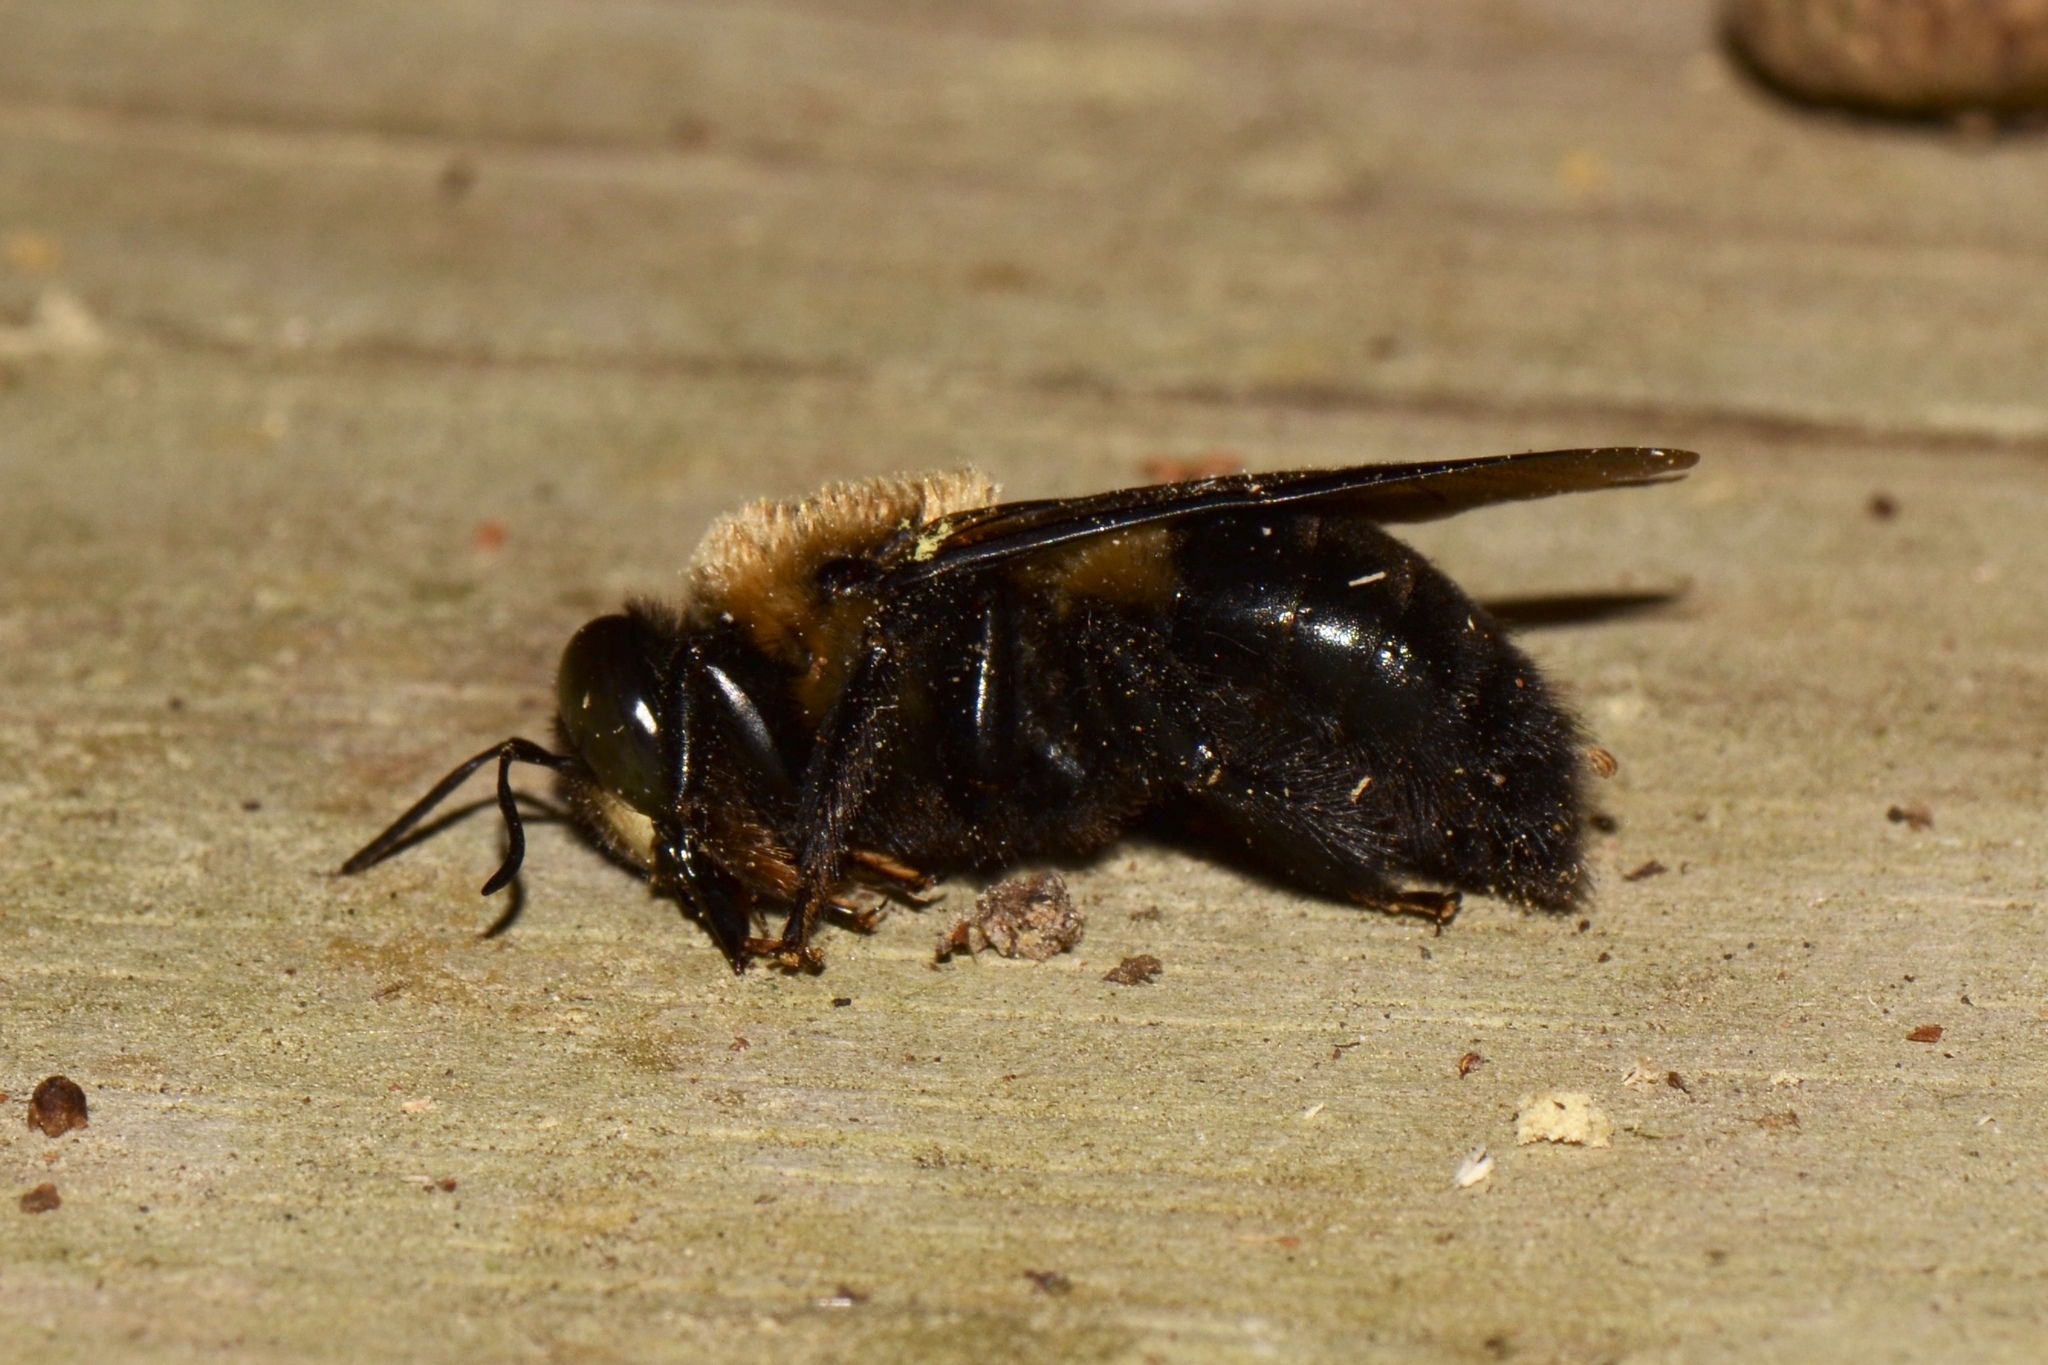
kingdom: Animalia
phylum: Arthropoda
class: Insecta
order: Hymenoptera
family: Apidae
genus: Xylocopa
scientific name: Xylocopa virginica
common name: Carpenter bee
